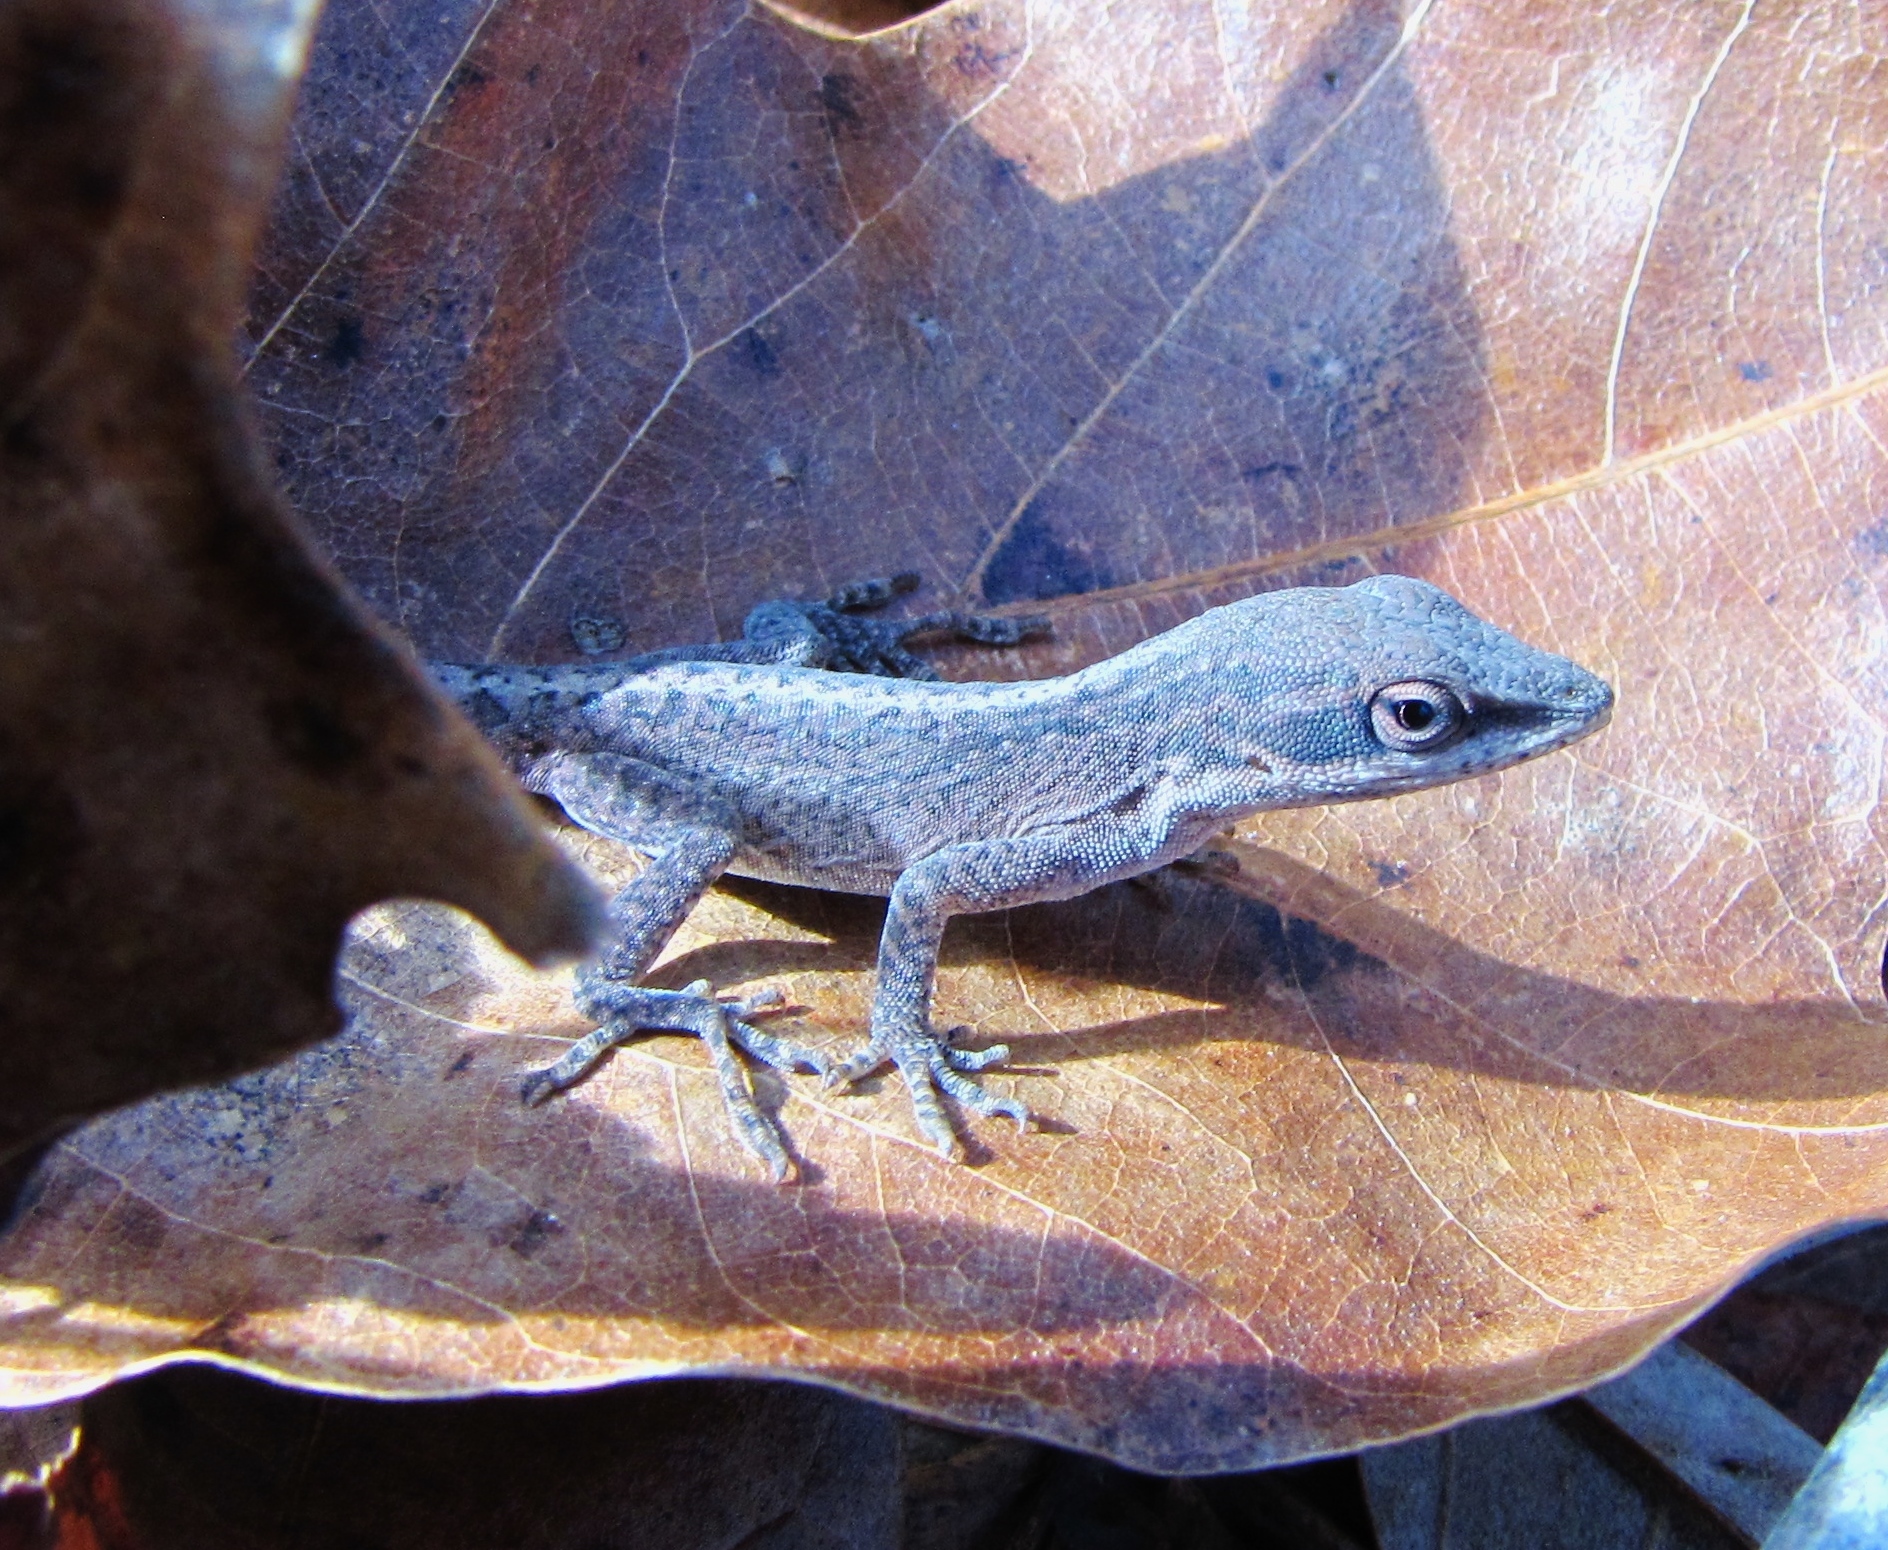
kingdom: Animalia
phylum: Chordata
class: Squamata
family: Dactyloidae
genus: Anolis
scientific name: Anolis carolinensis
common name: Green anole
